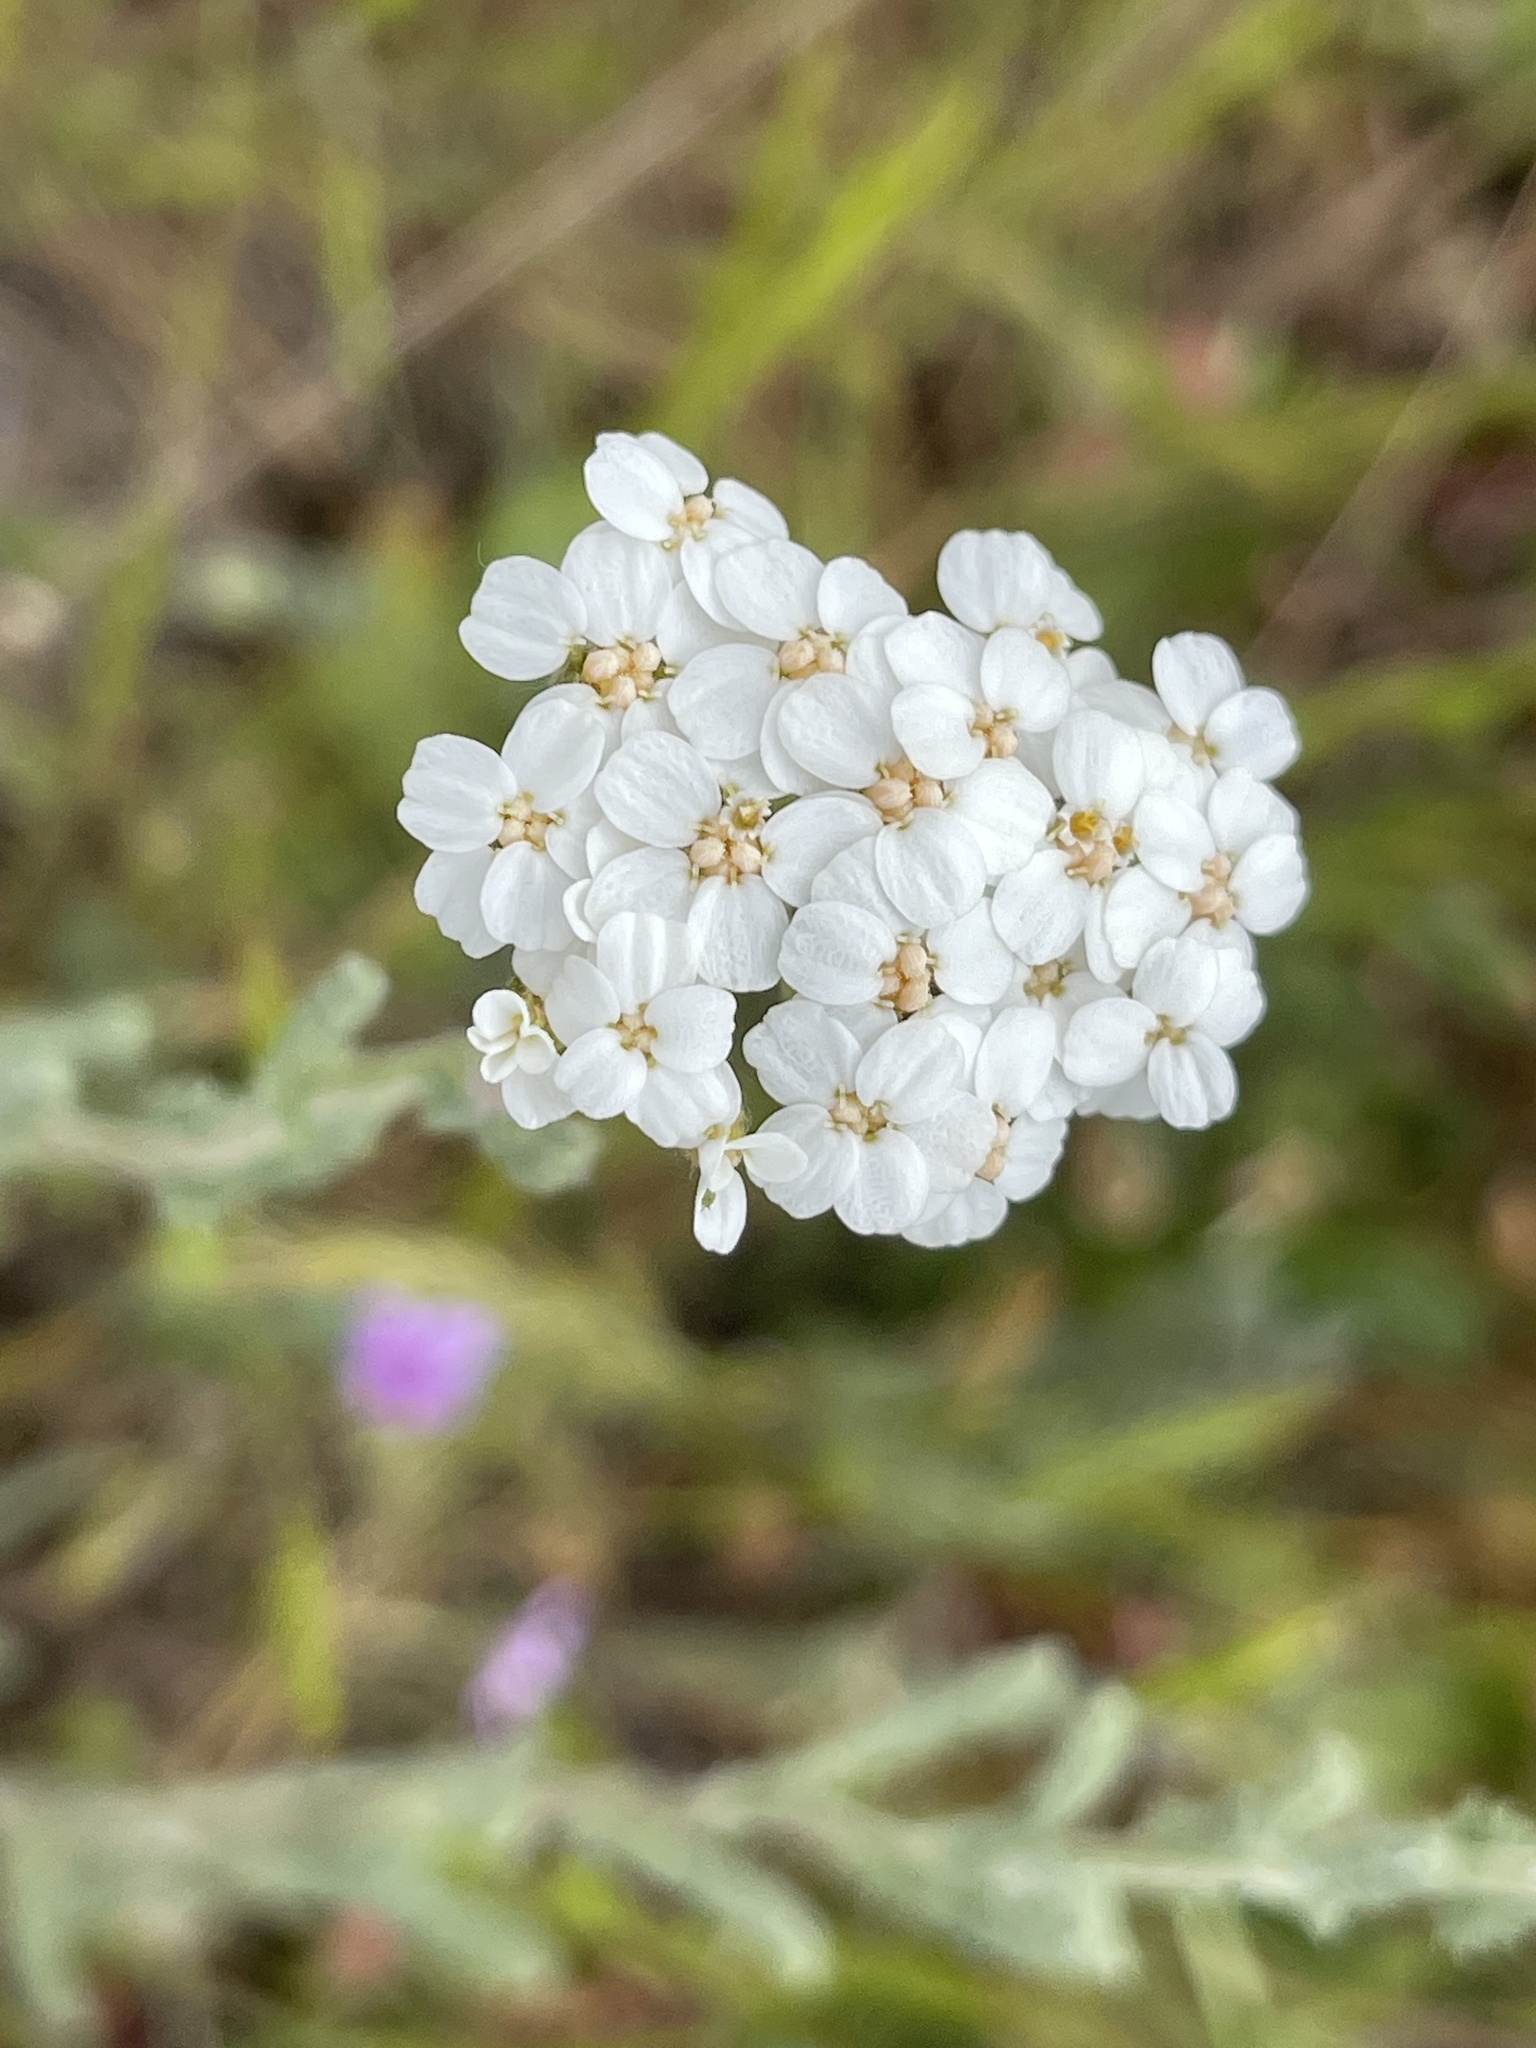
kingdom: Plantae
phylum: Tracheophyta
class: Magnoliopsida
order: Asterales
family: Asteraceae
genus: Achillea
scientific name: Achillea millefolium
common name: Yarrow
